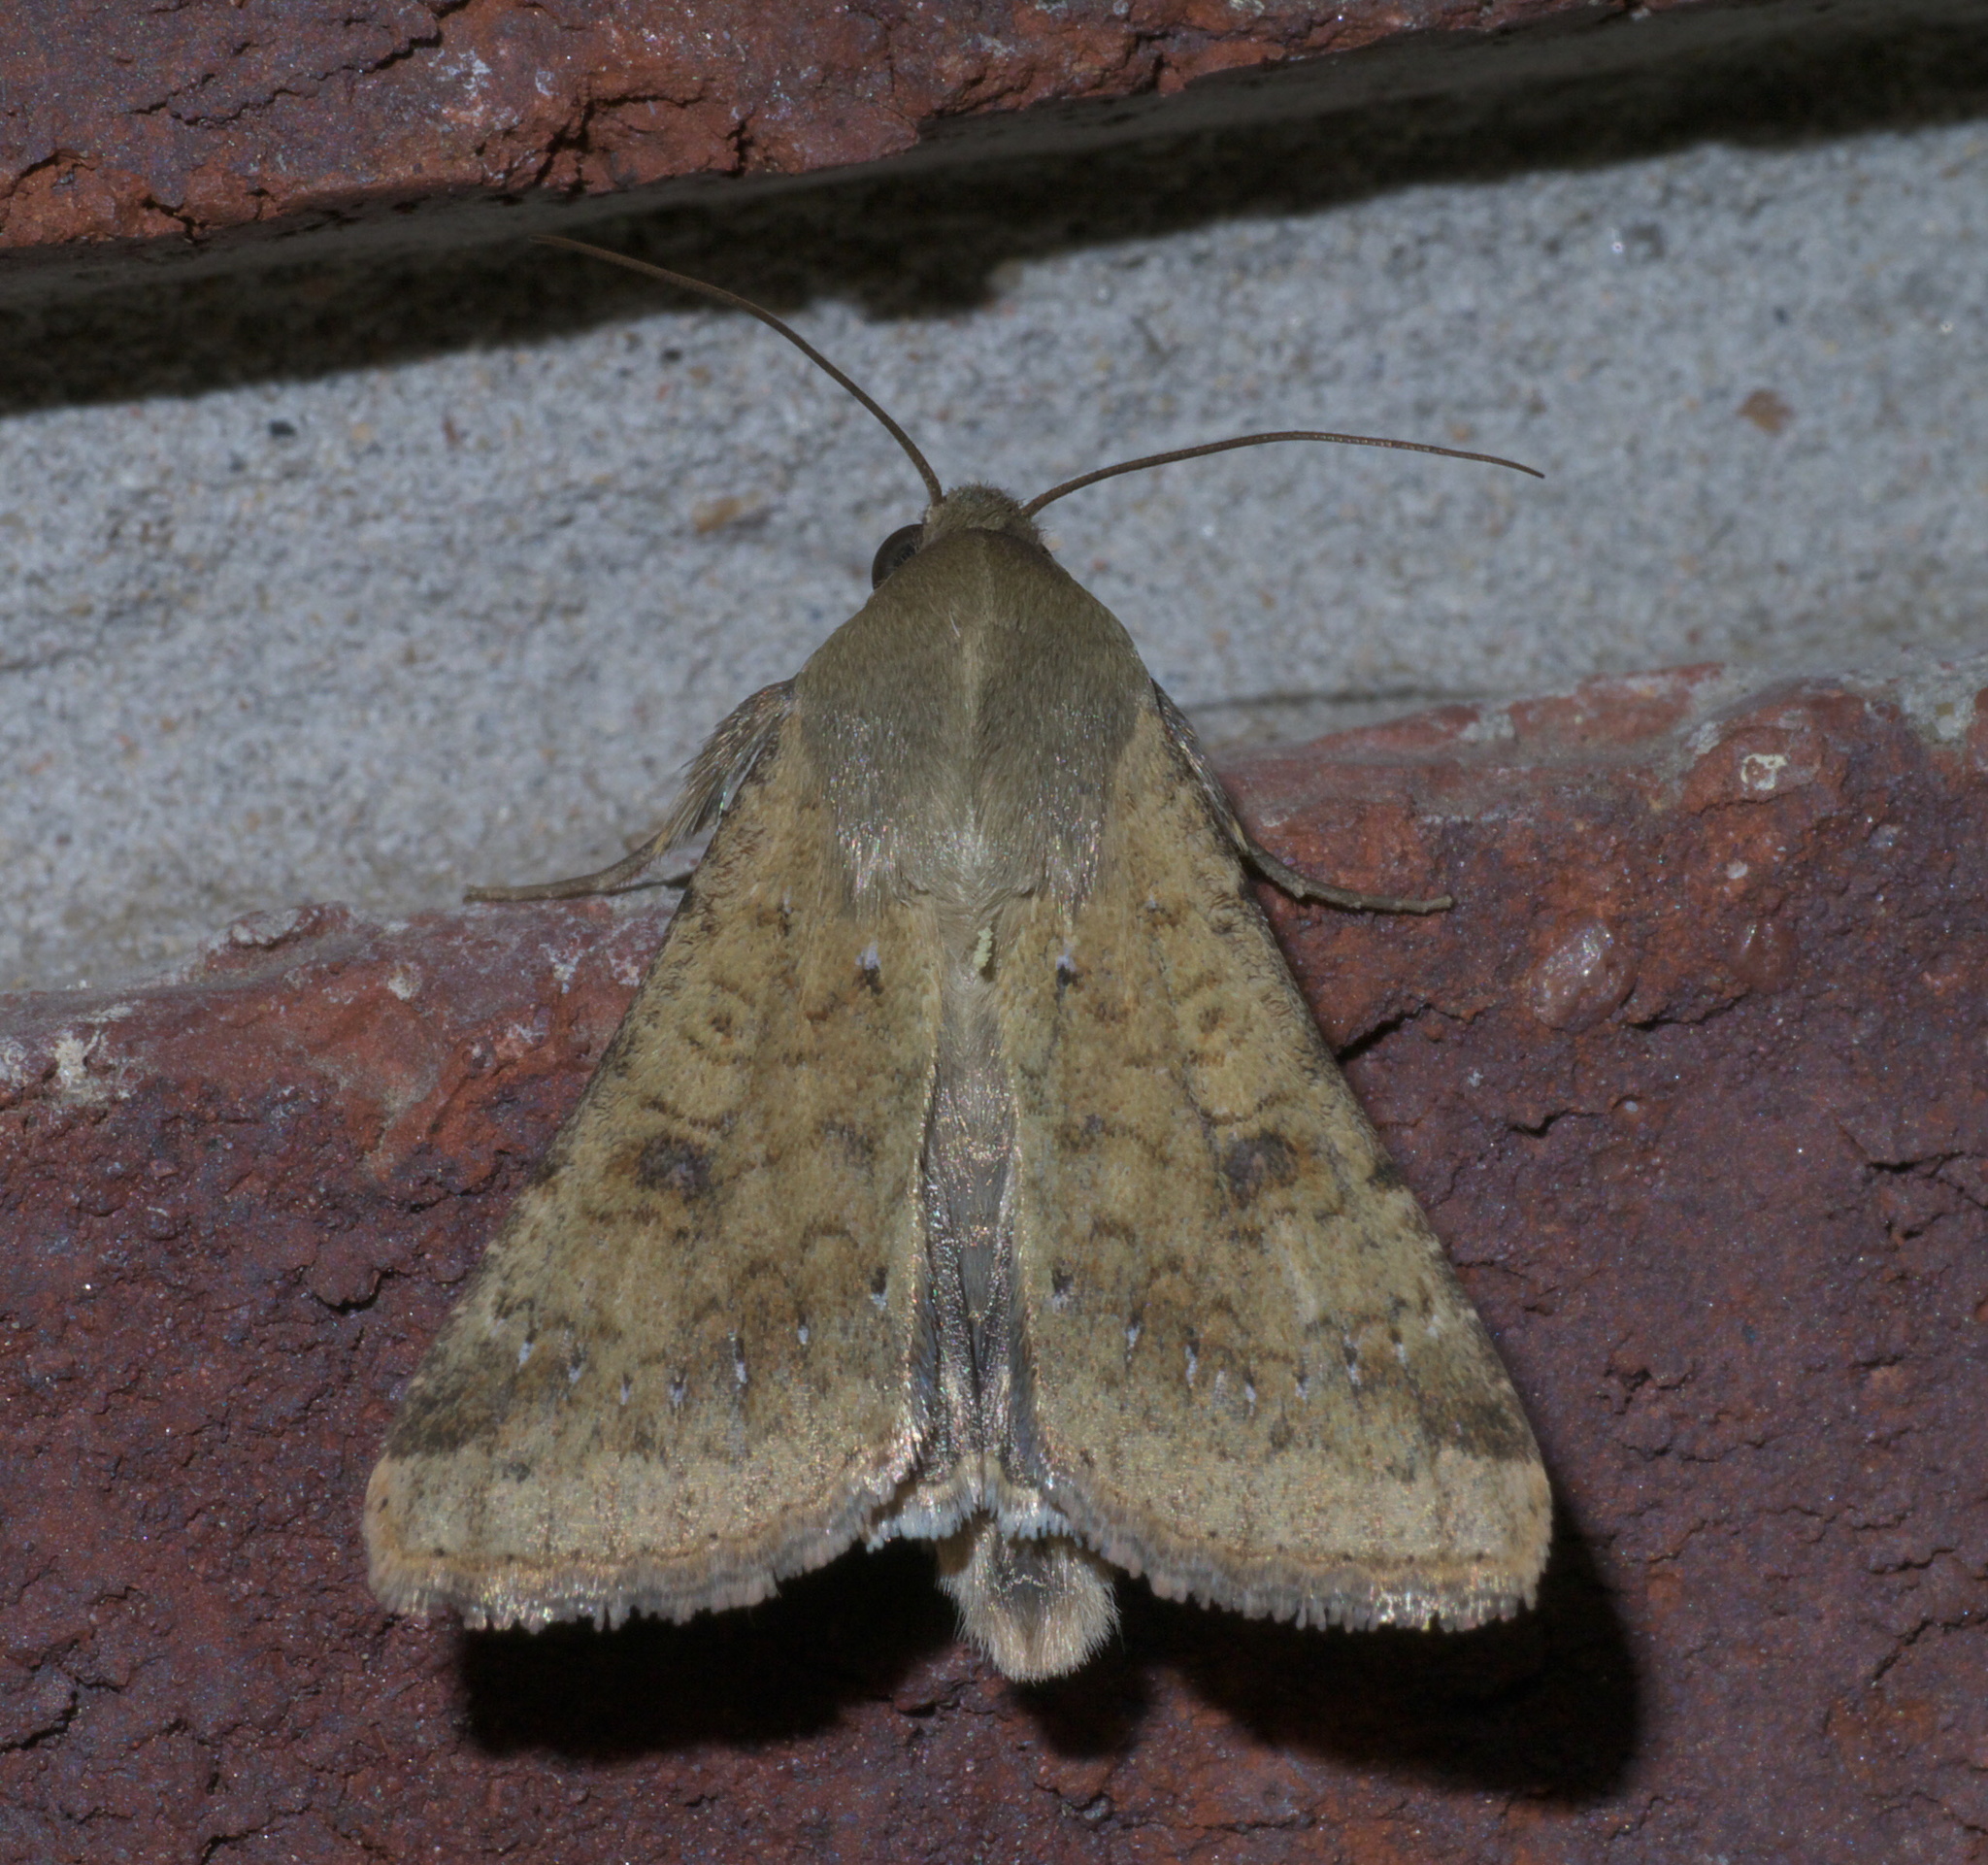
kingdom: Animalia
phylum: Arthropoda
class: Insecta
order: Lepidoptera
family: Noctuidae
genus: Helicoverpa
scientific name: Helicoverpa zea
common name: Bollworm
